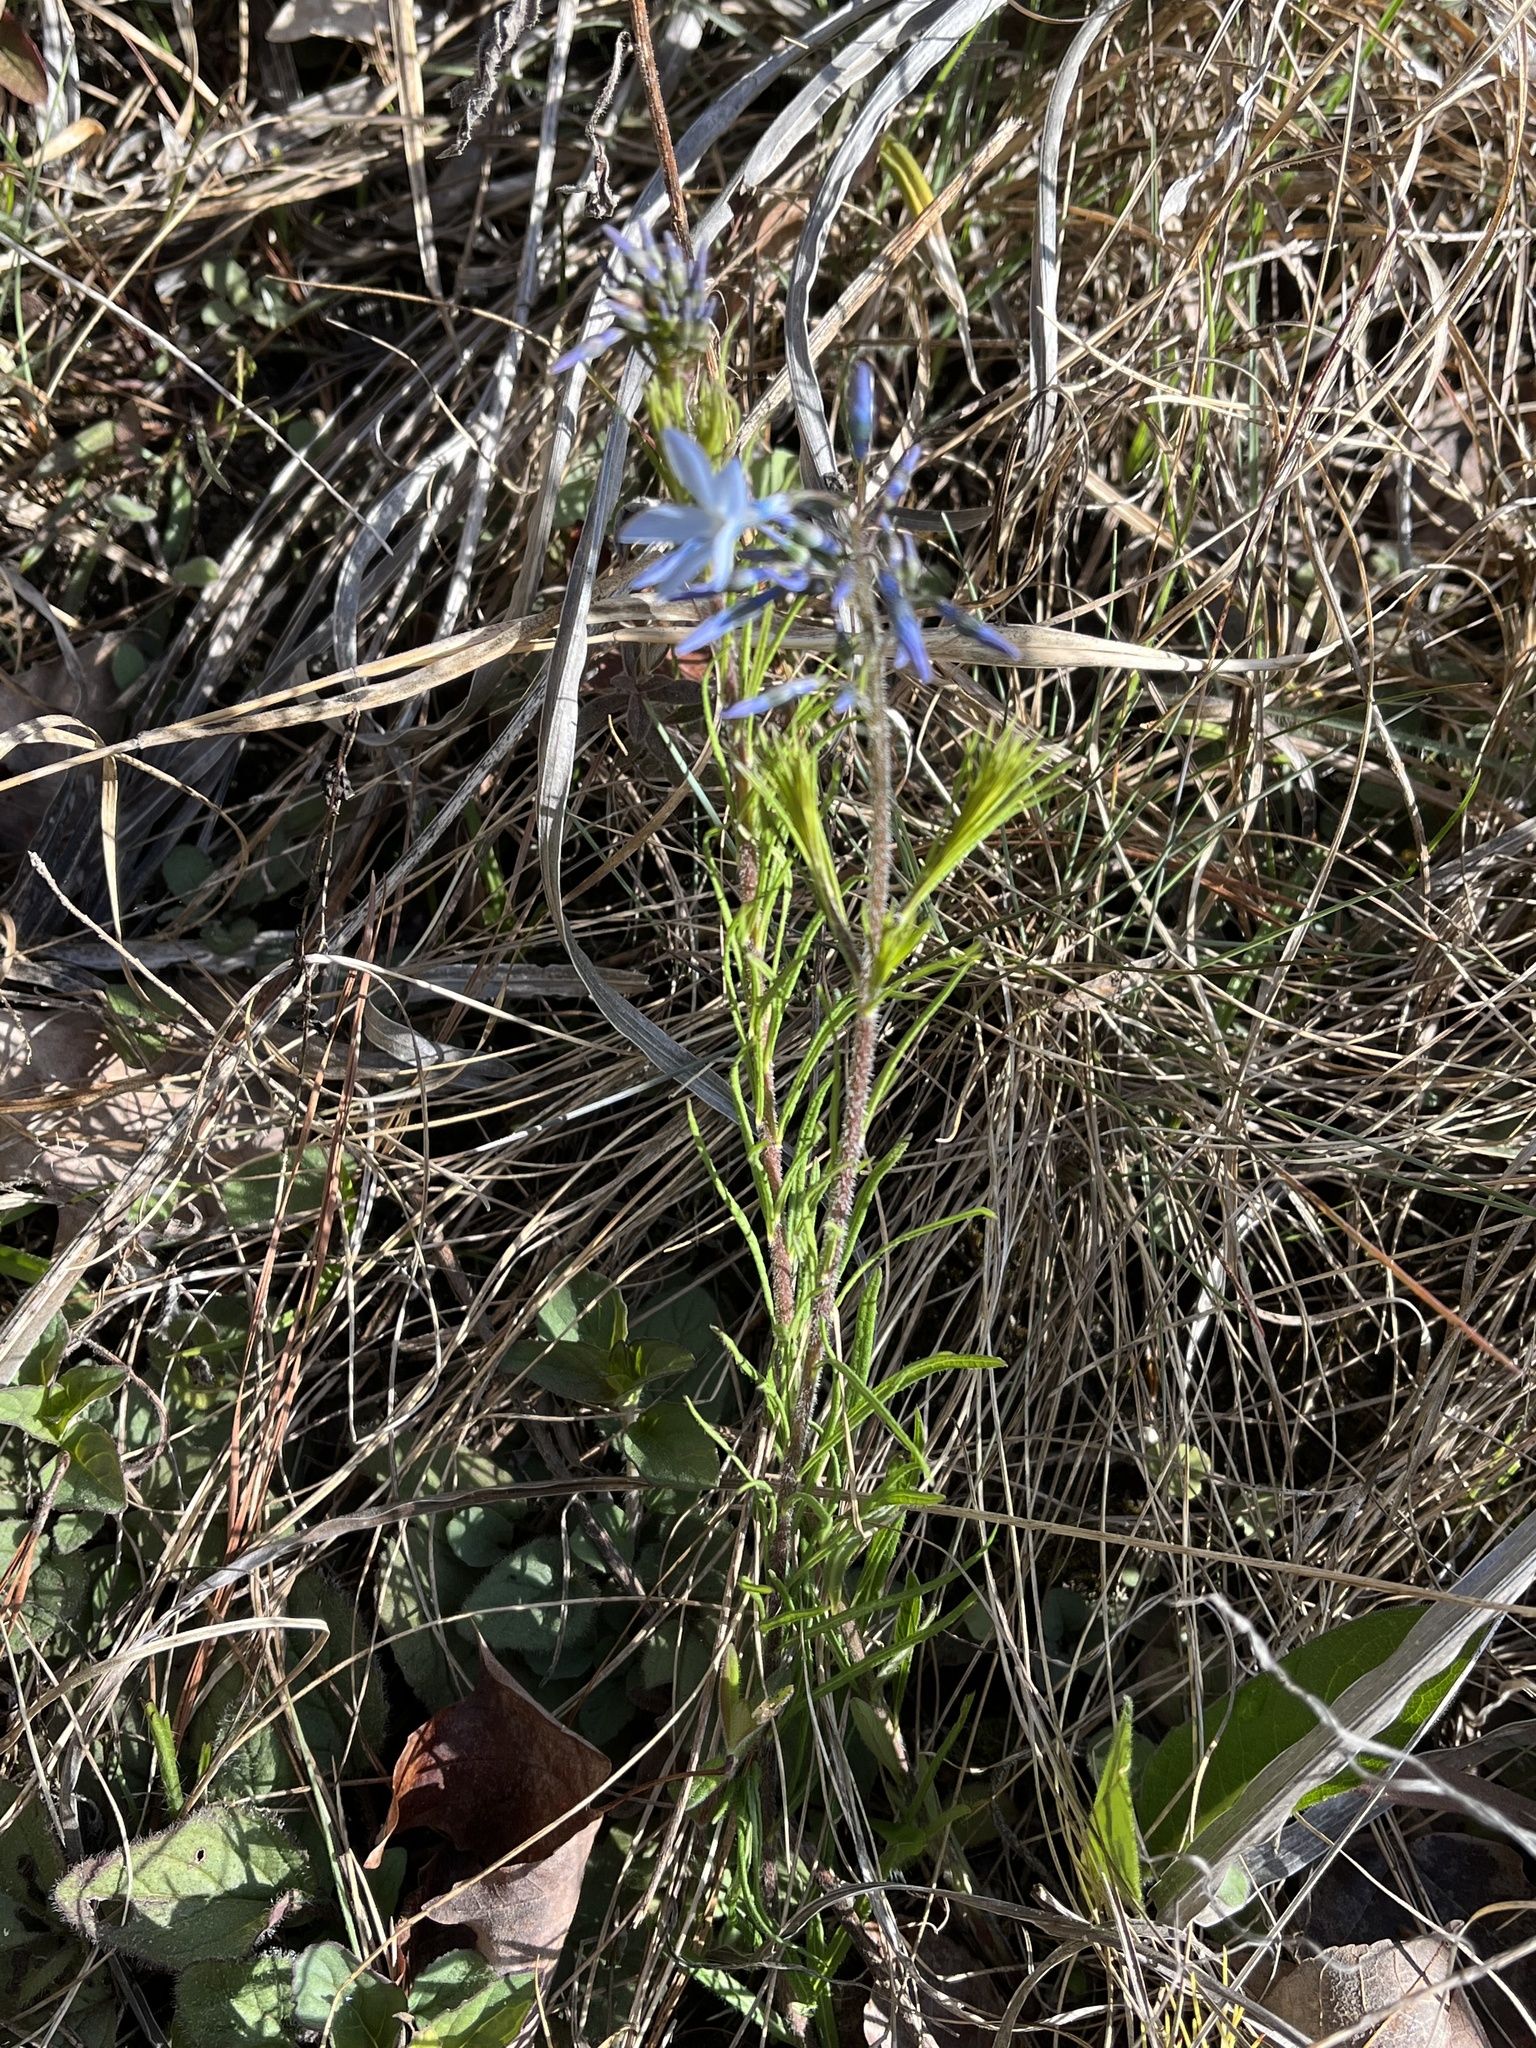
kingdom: Plantae
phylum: Tracheophyta
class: Magnoliopsida
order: Gentianales
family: Apocynaceae
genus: Amsonia
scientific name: Amsonia ciliata
